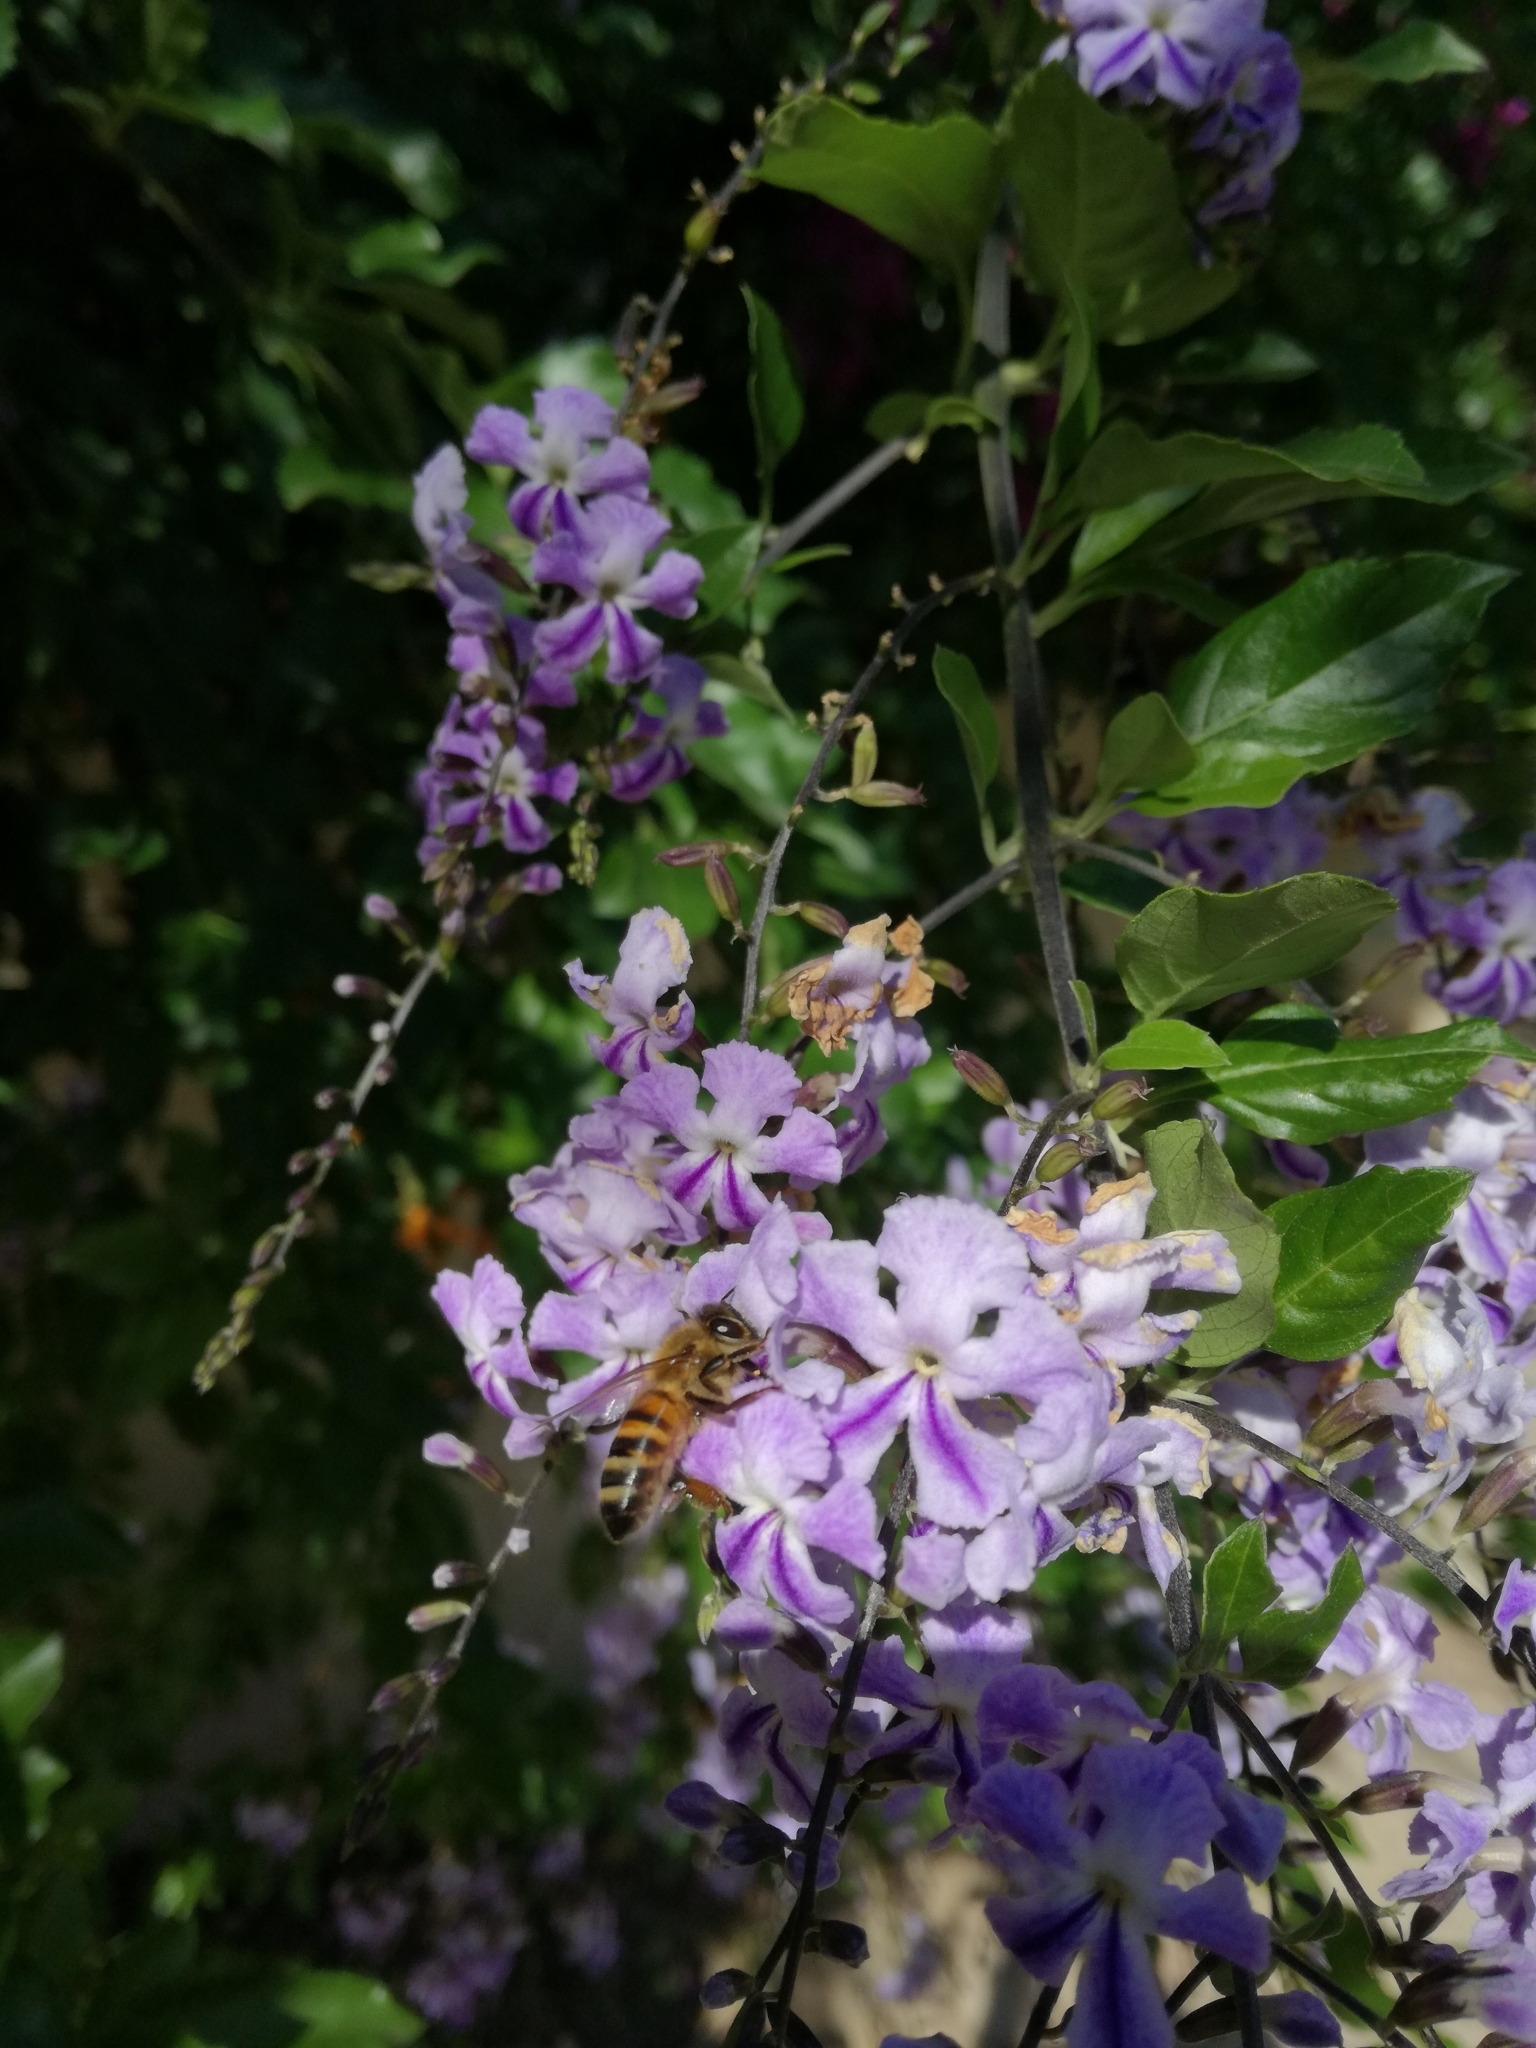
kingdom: Animalia
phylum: Arthropoda
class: Insecta
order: Hymenoptera
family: Apidae
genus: Apis
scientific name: Apis mellifera
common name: Honey bee
